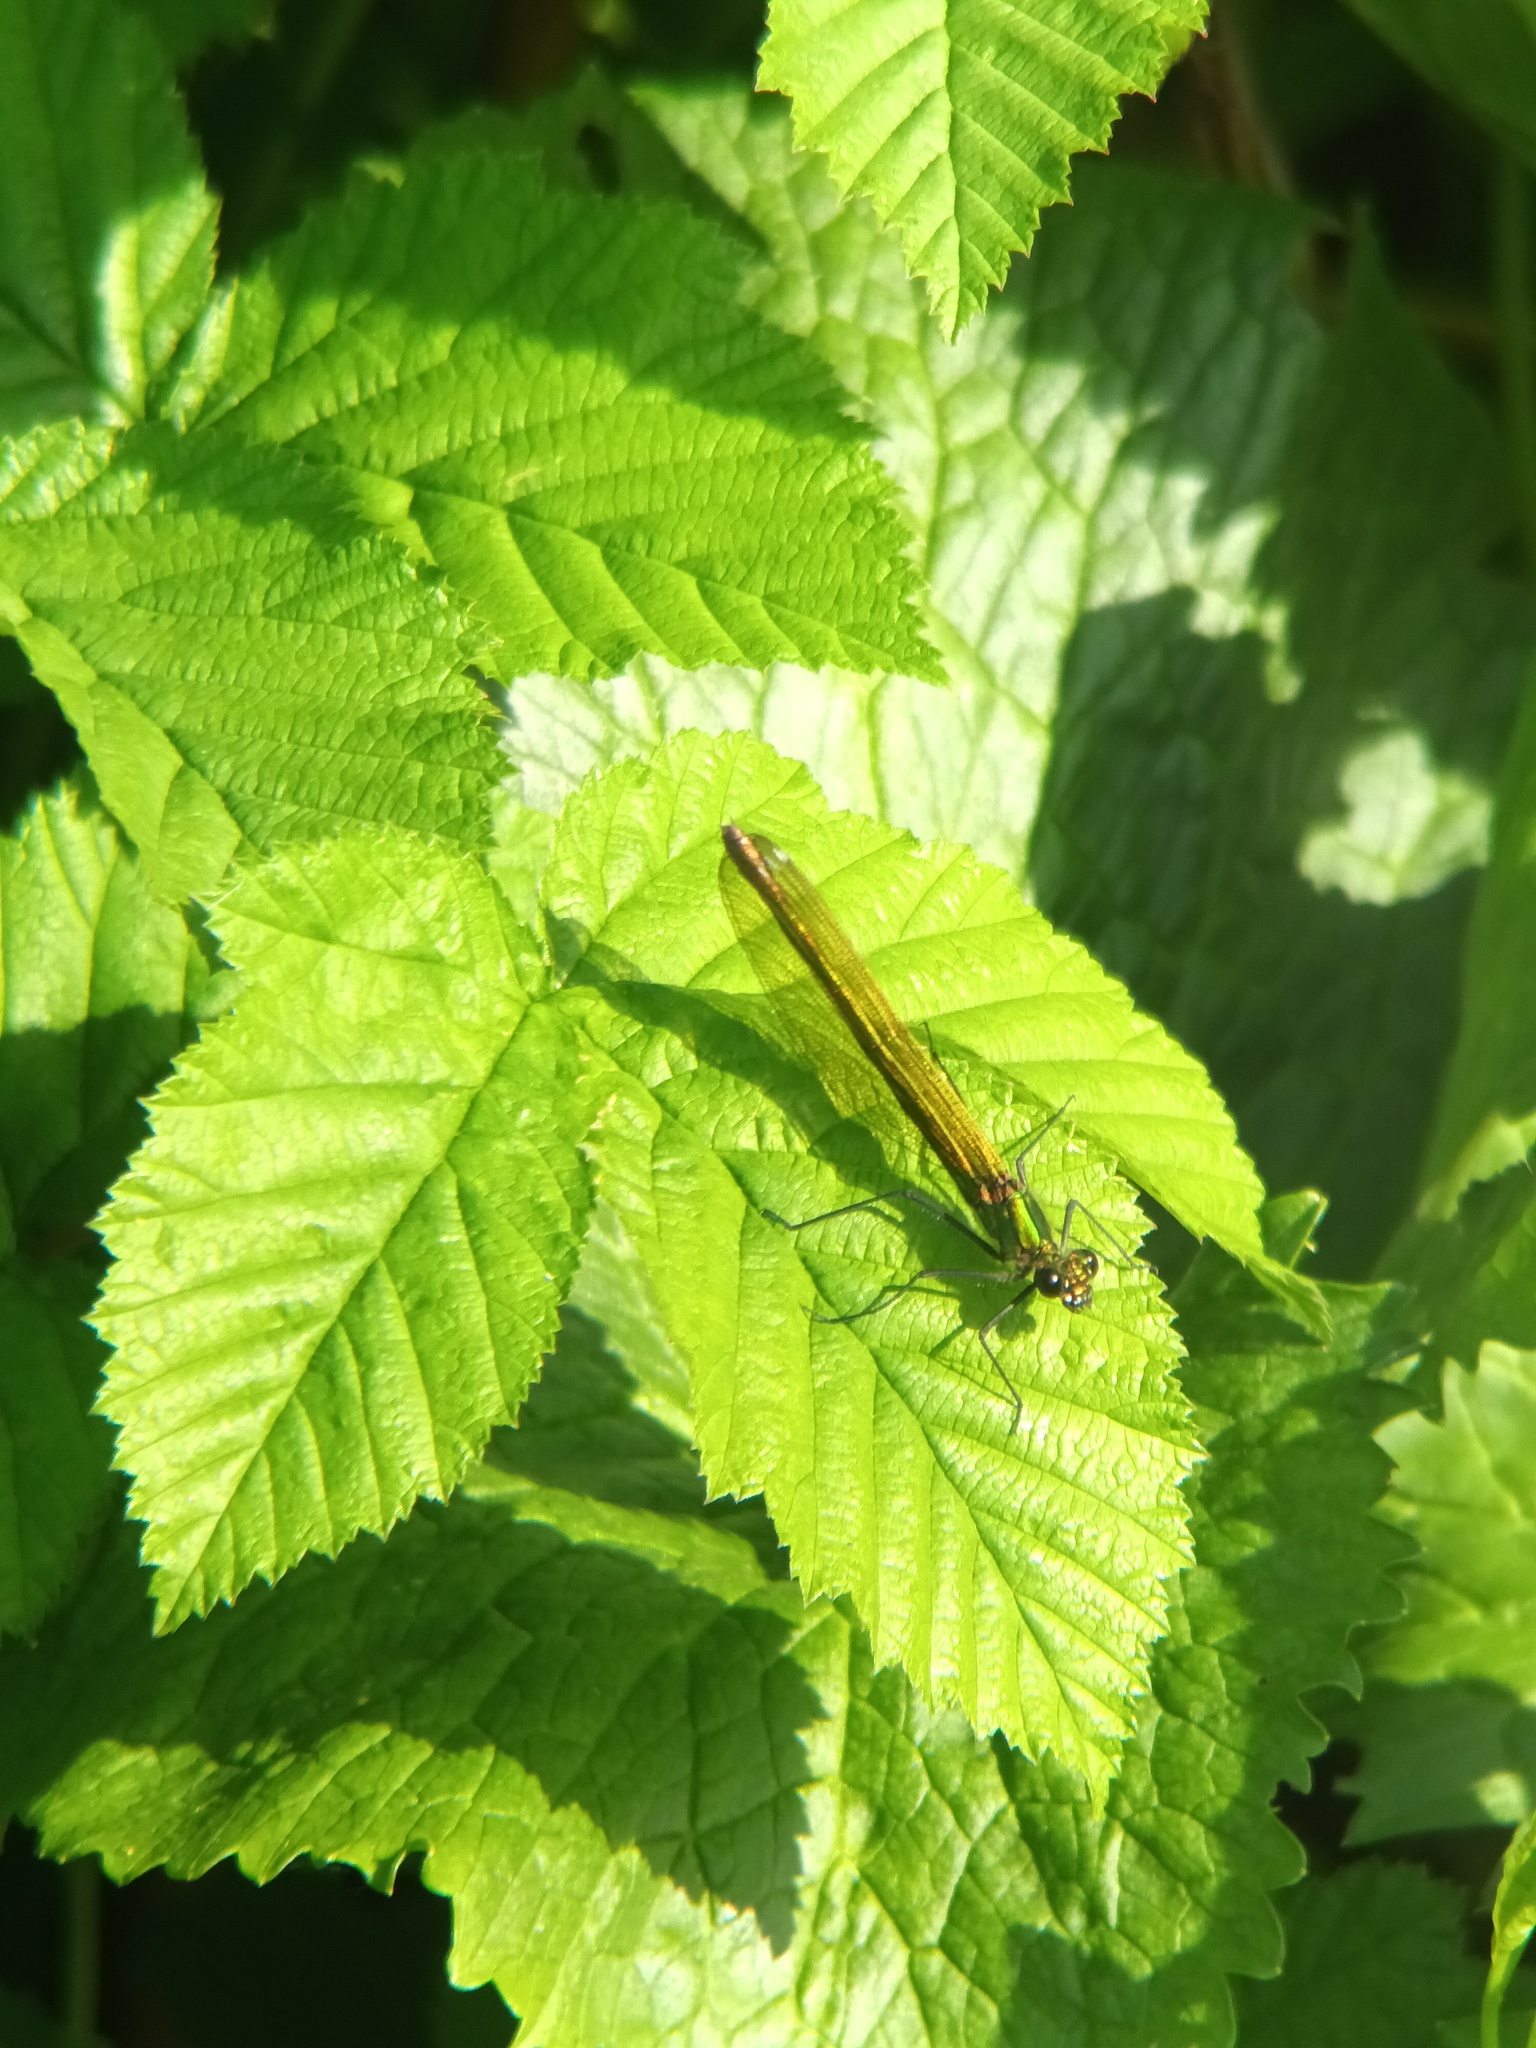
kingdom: Animalia
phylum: Arthropoda
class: Insecta
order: Odonata
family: Calopterygidae
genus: Calopteryx
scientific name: Calopteryx splendens
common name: Banded demoiselle
